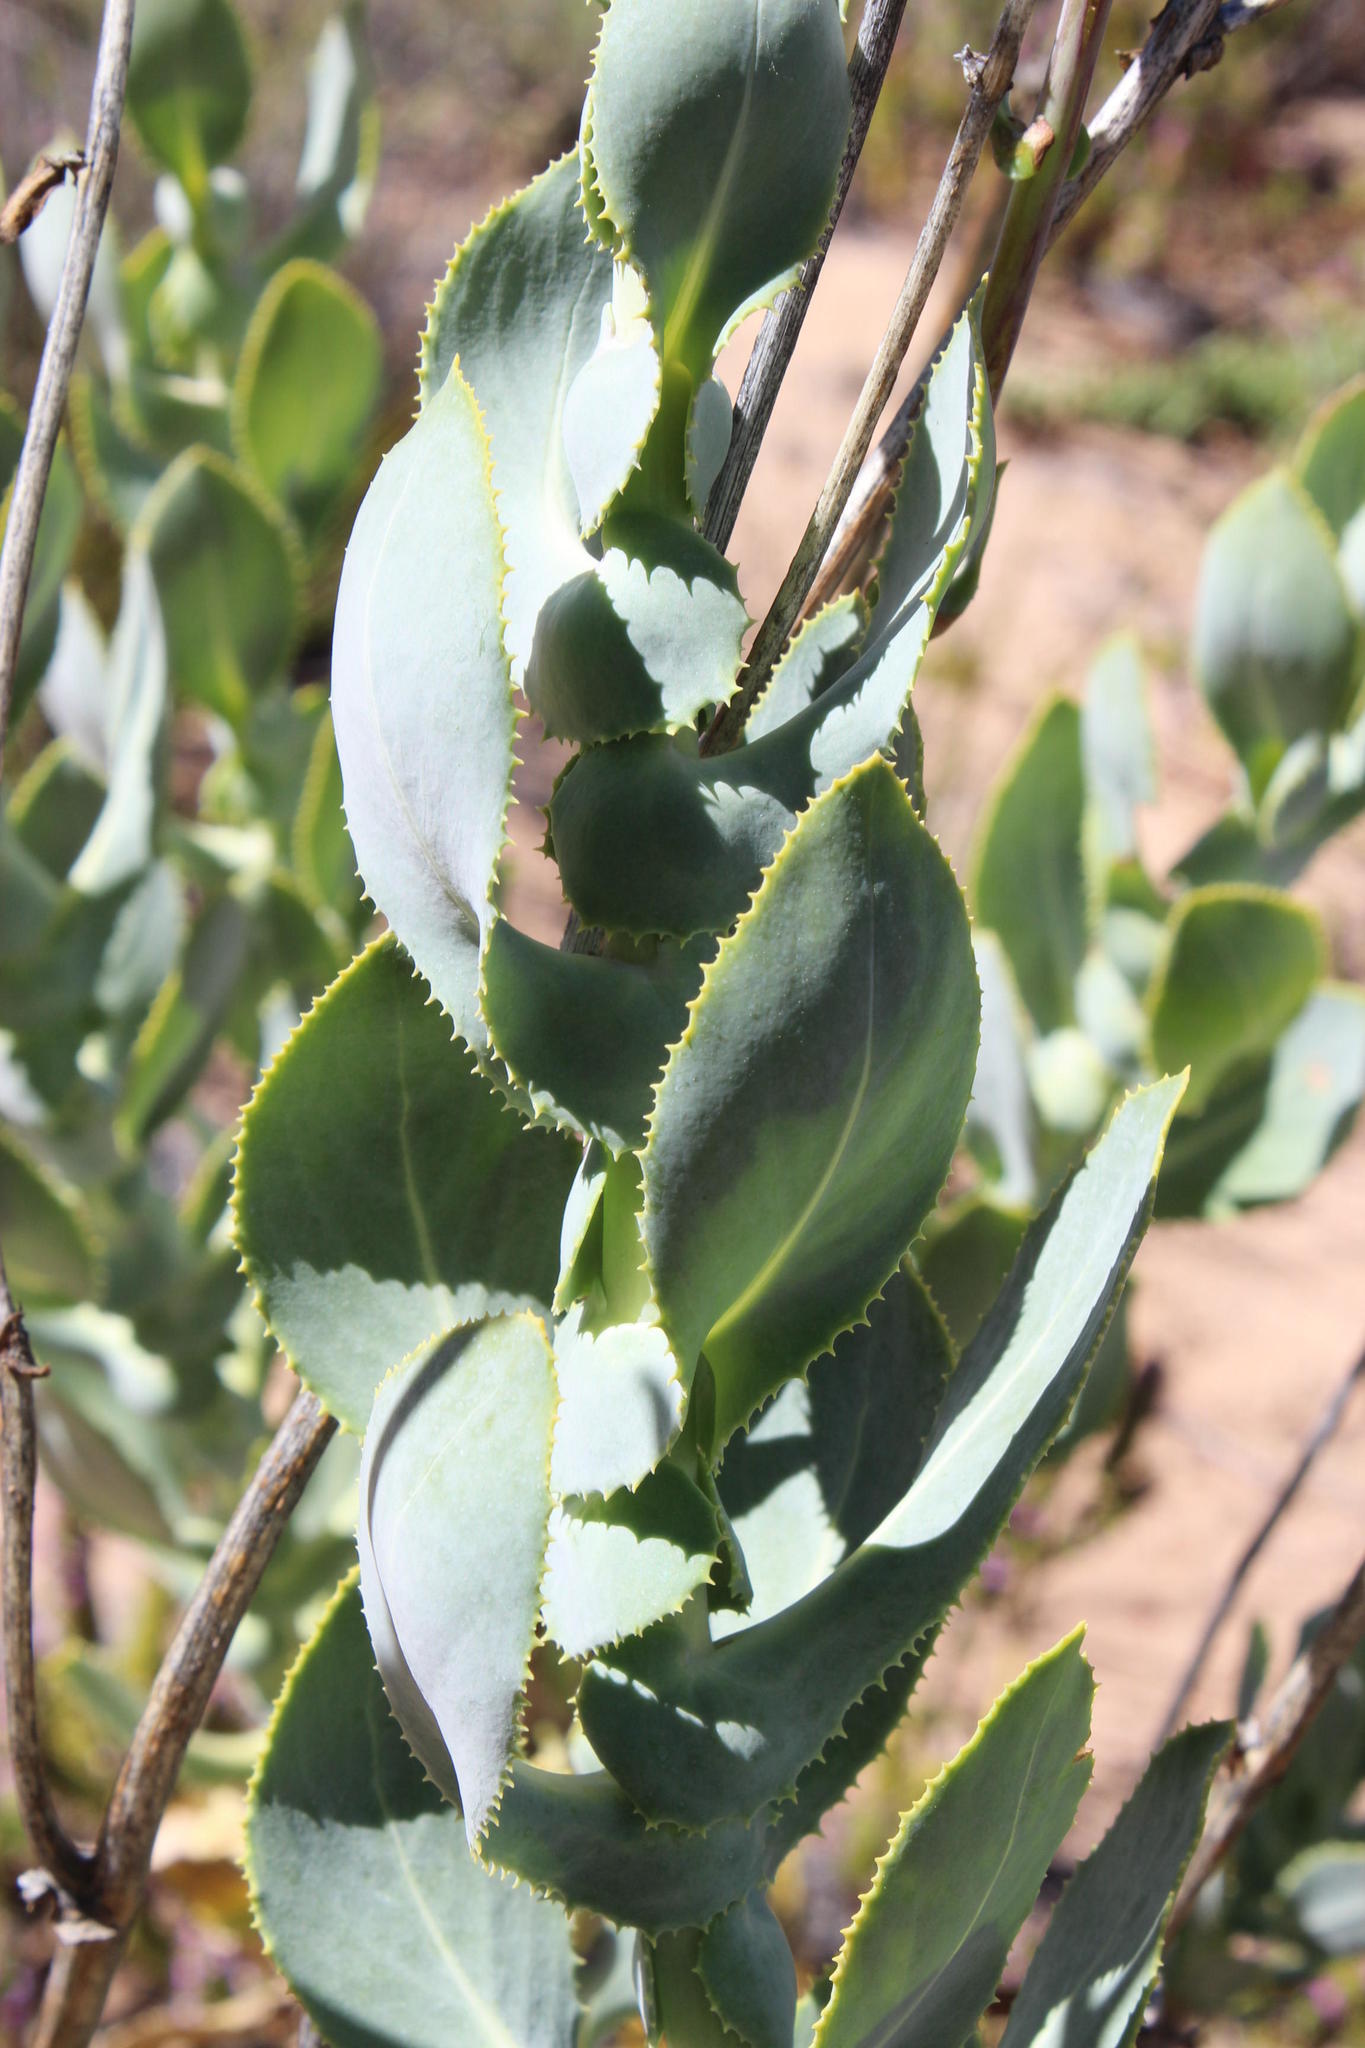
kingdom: Plantae
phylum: Tracheophyta
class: Magnoliopsida
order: Asterales
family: Asteraceae
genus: Othonna
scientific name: Othonna parviflora
